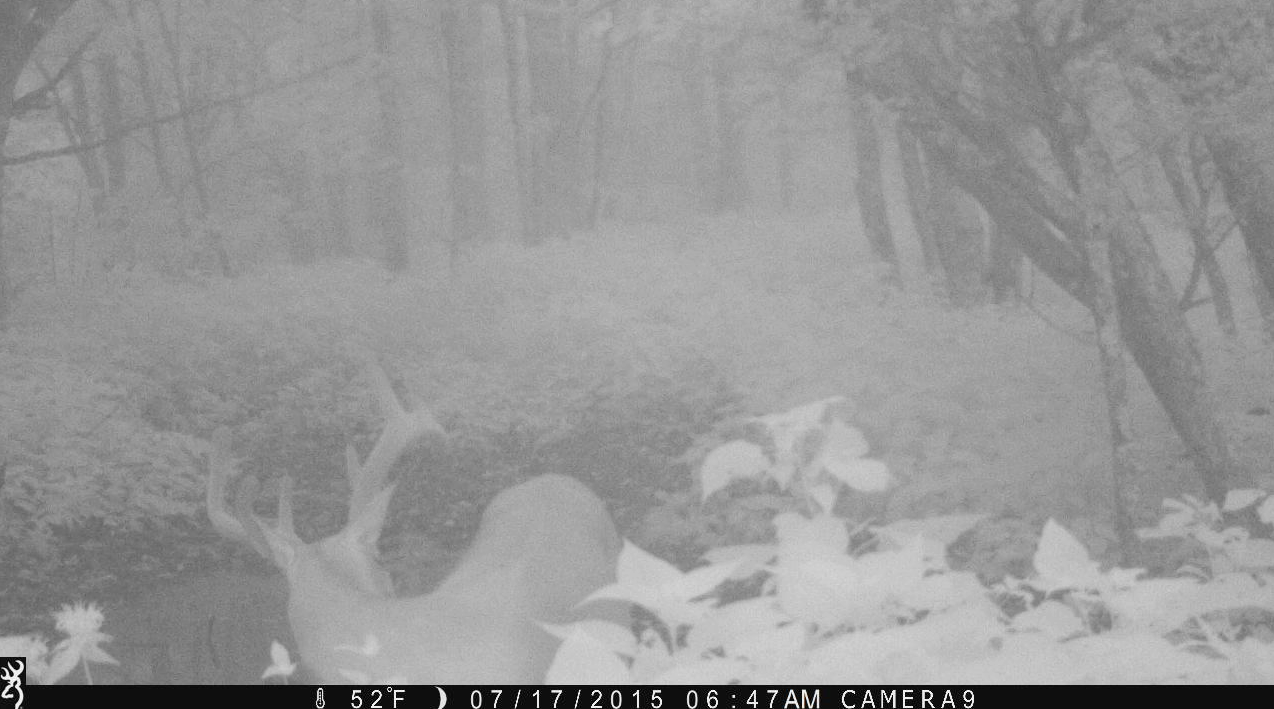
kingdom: Animalia
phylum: Chordata
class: Mammalia
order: Artiodactyla
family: Cervidae
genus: Odocoileus
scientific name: Odocoileus virginianus
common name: White-tailed deer
